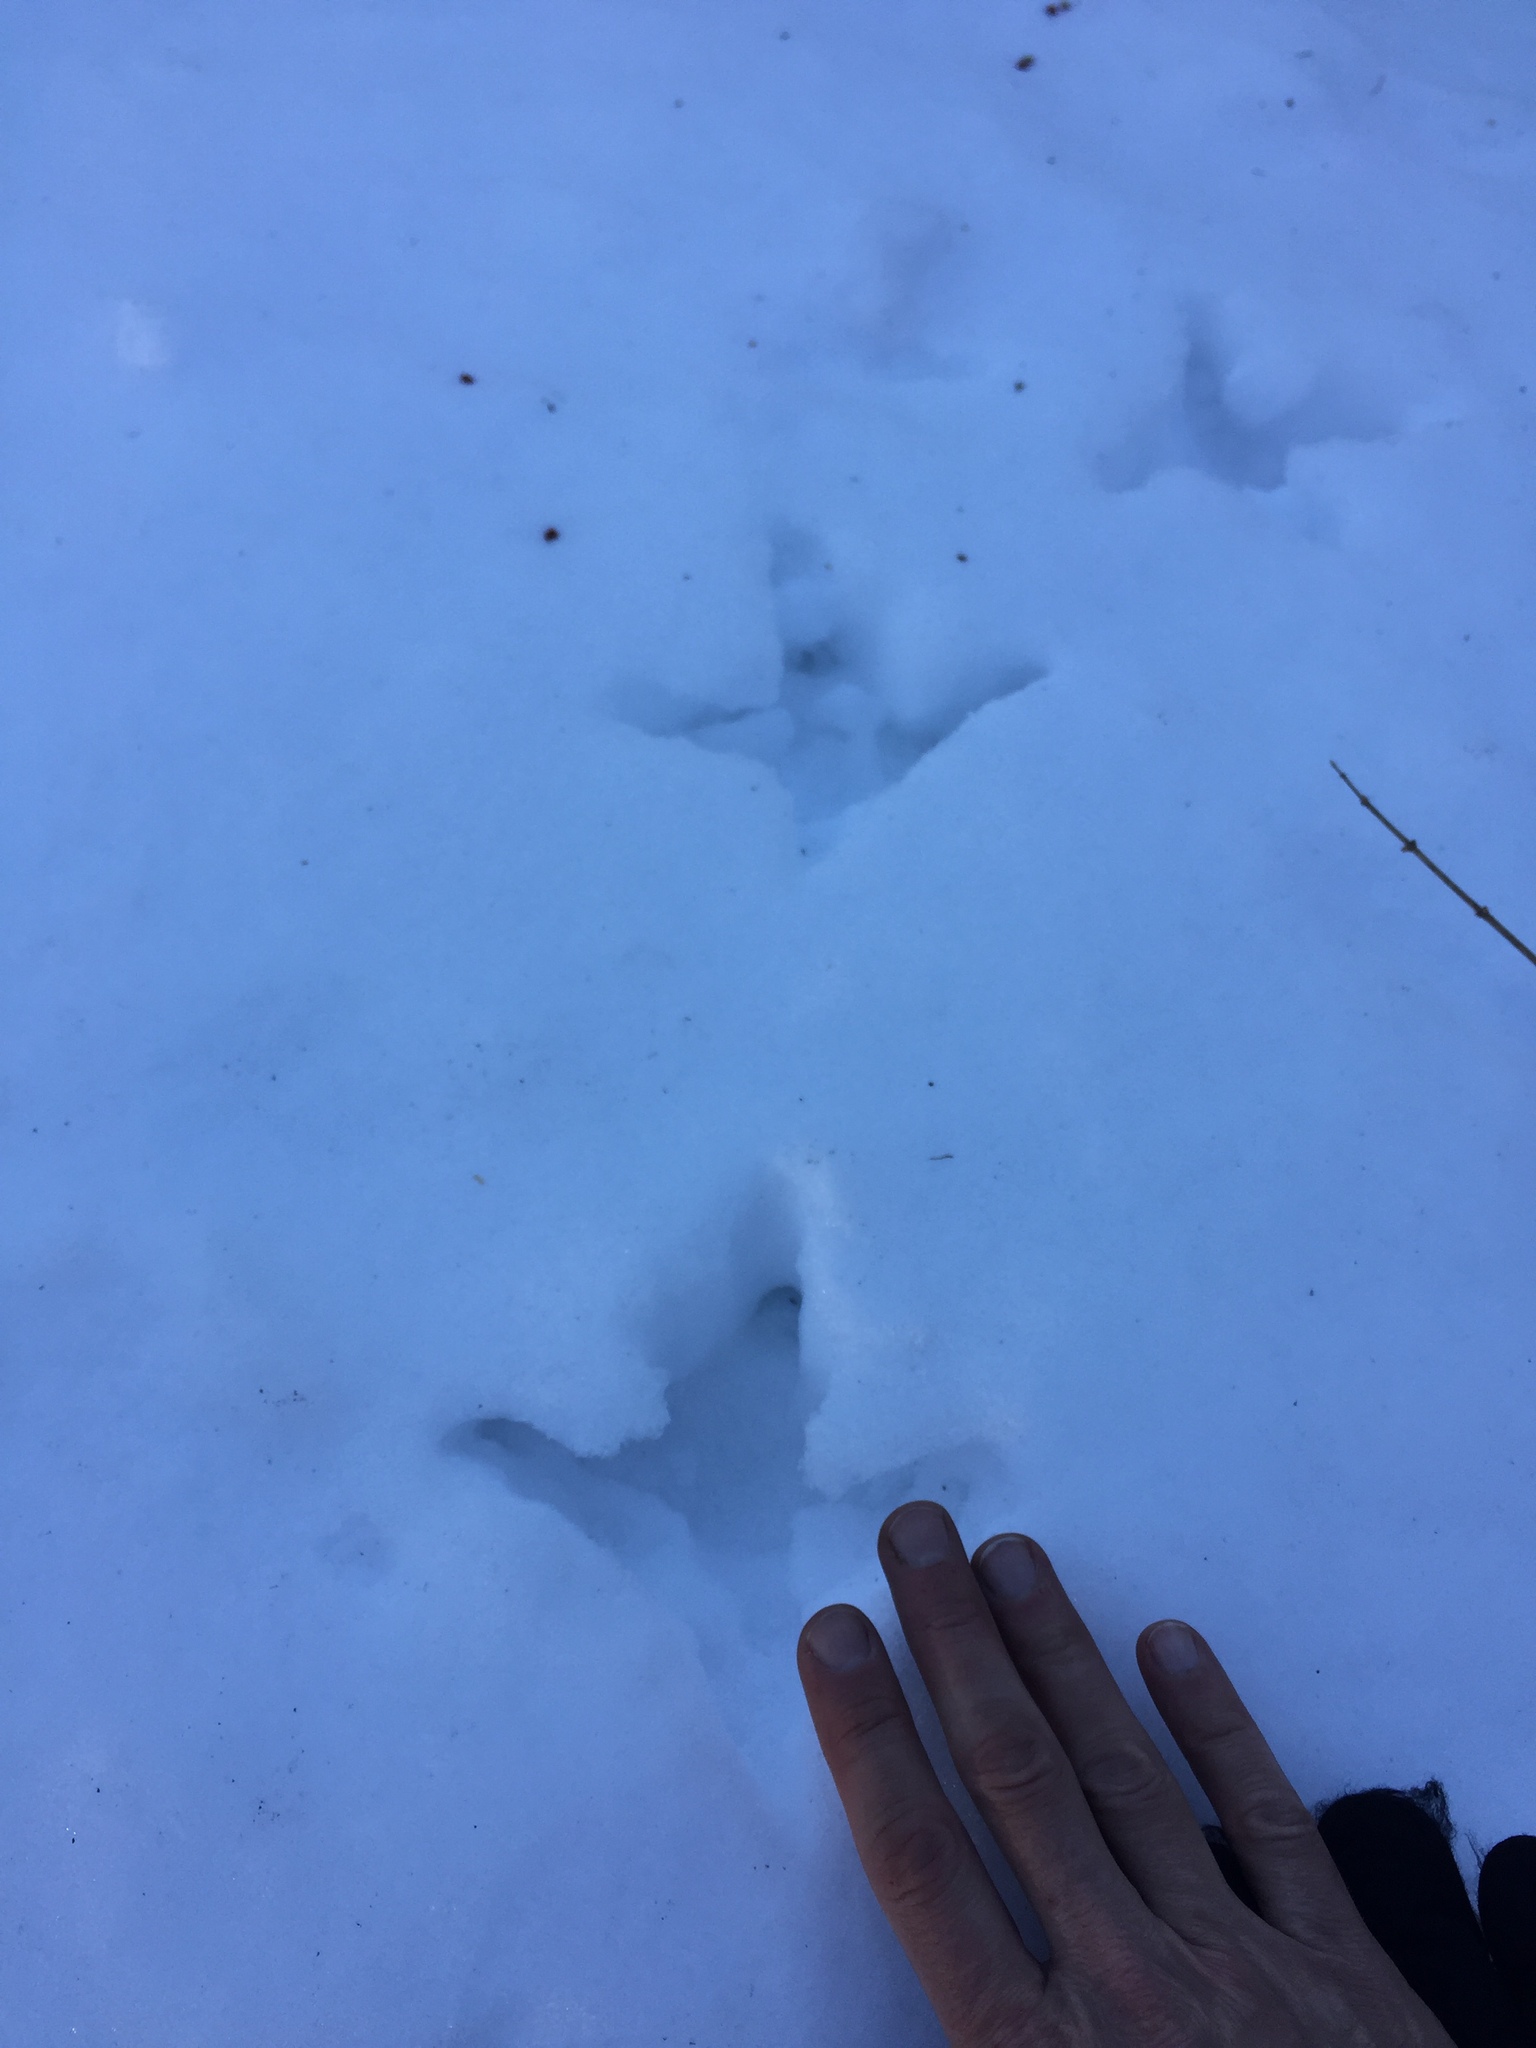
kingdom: Animalia
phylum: Chordata
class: Aves
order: Galliformes
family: Phasianidae
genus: Meleagris
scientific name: Meleagris gallopavo
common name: Wild turkey
